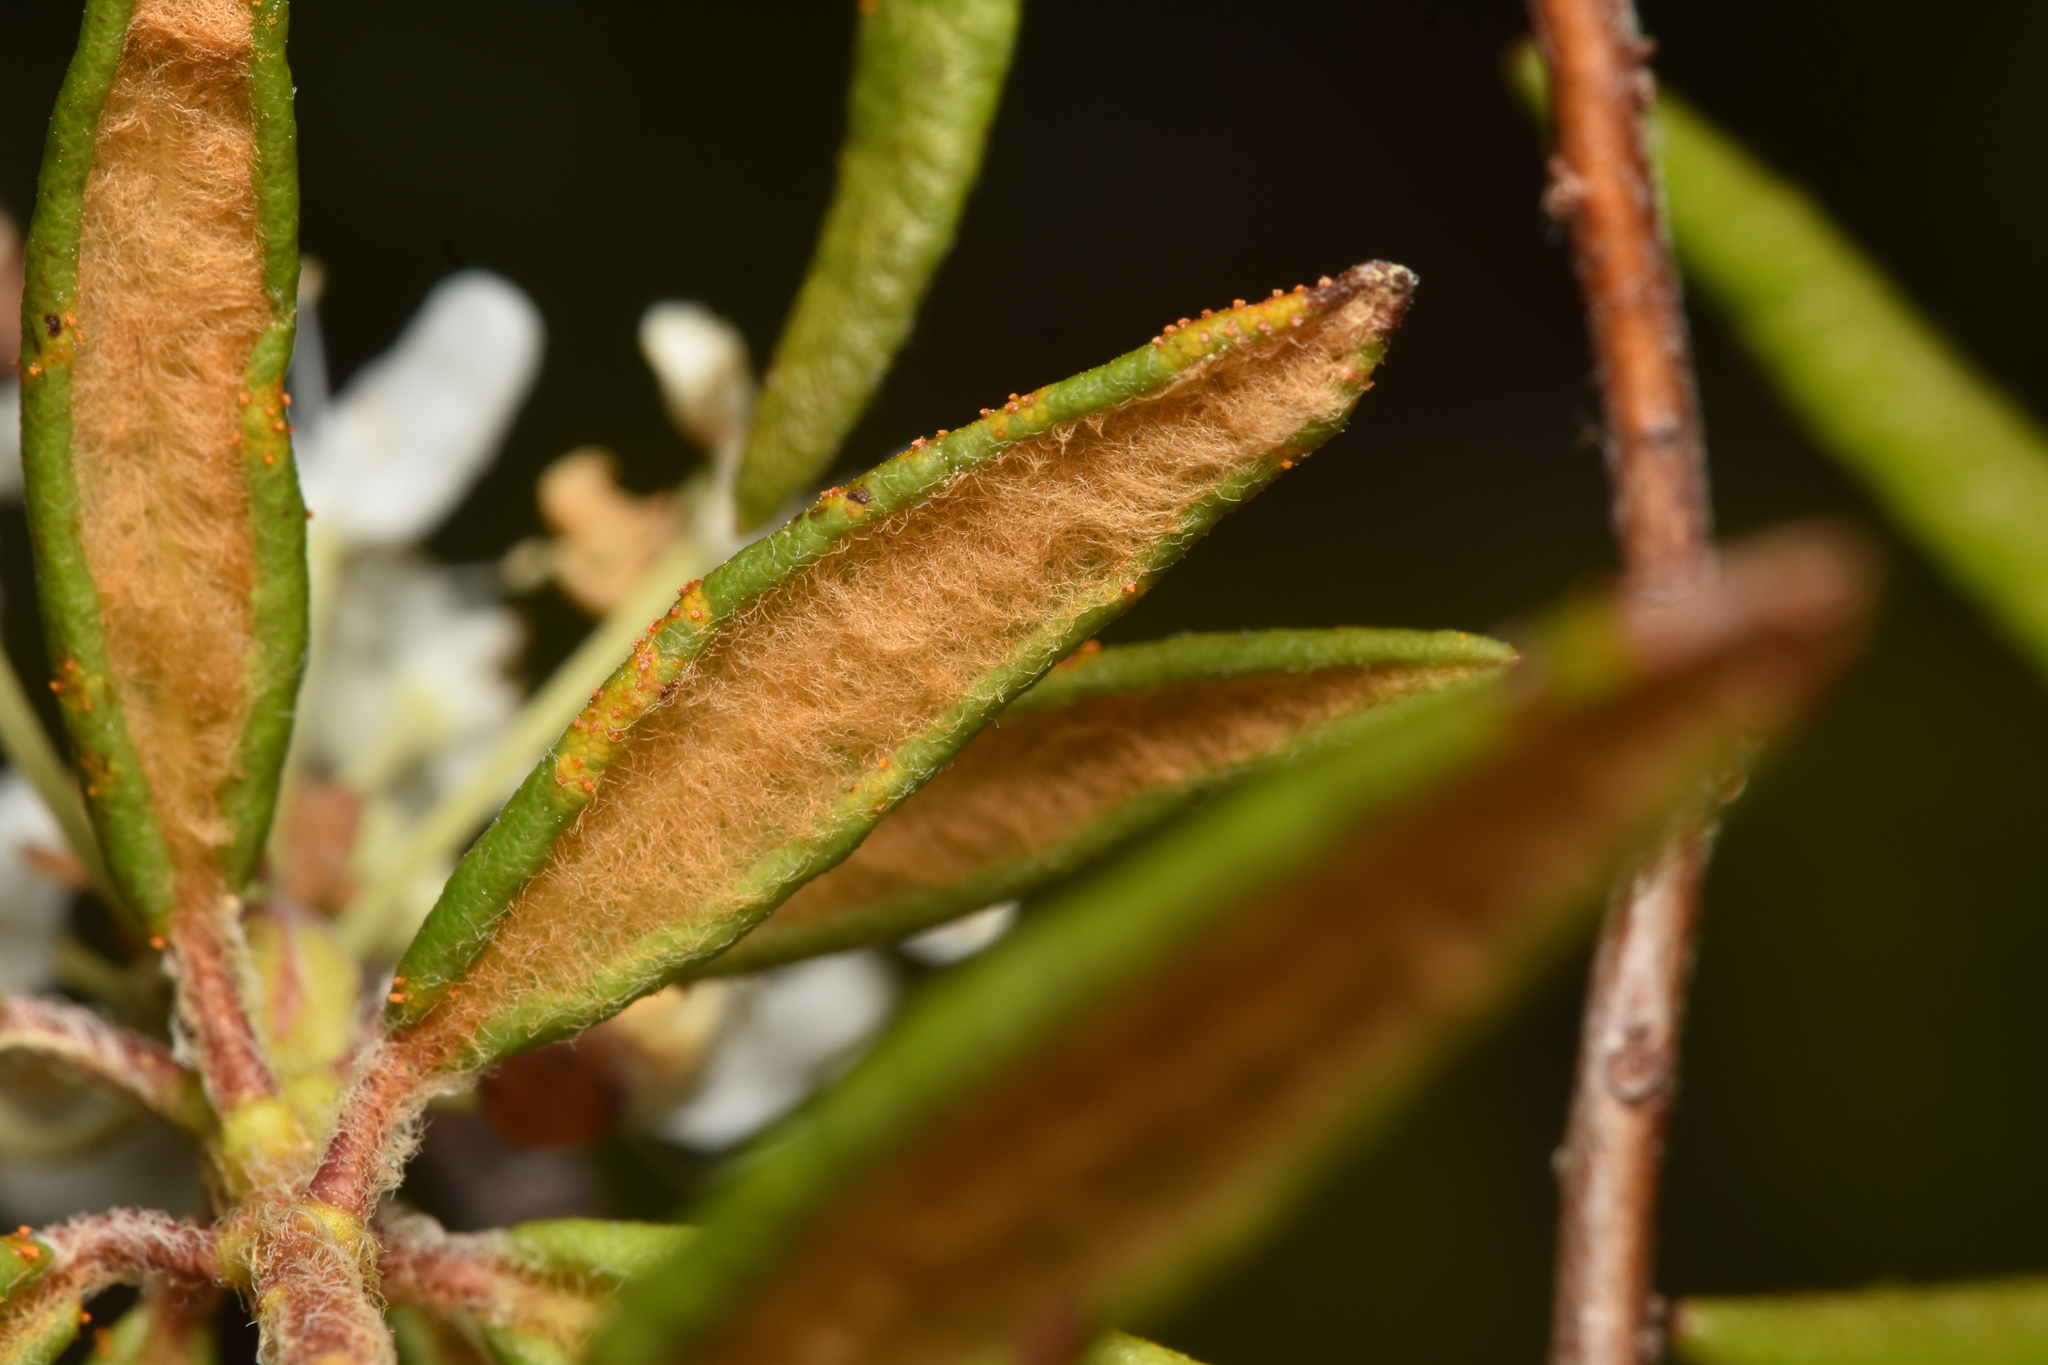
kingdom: Fungi
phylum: Basidiomycota
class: Pucciniomycetes
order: Pucciniales
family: Coleosporiaceae
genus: Chrysomyxa
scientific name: Chrysomyxa ledicola
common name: Spruce-labrador tea needle rust
